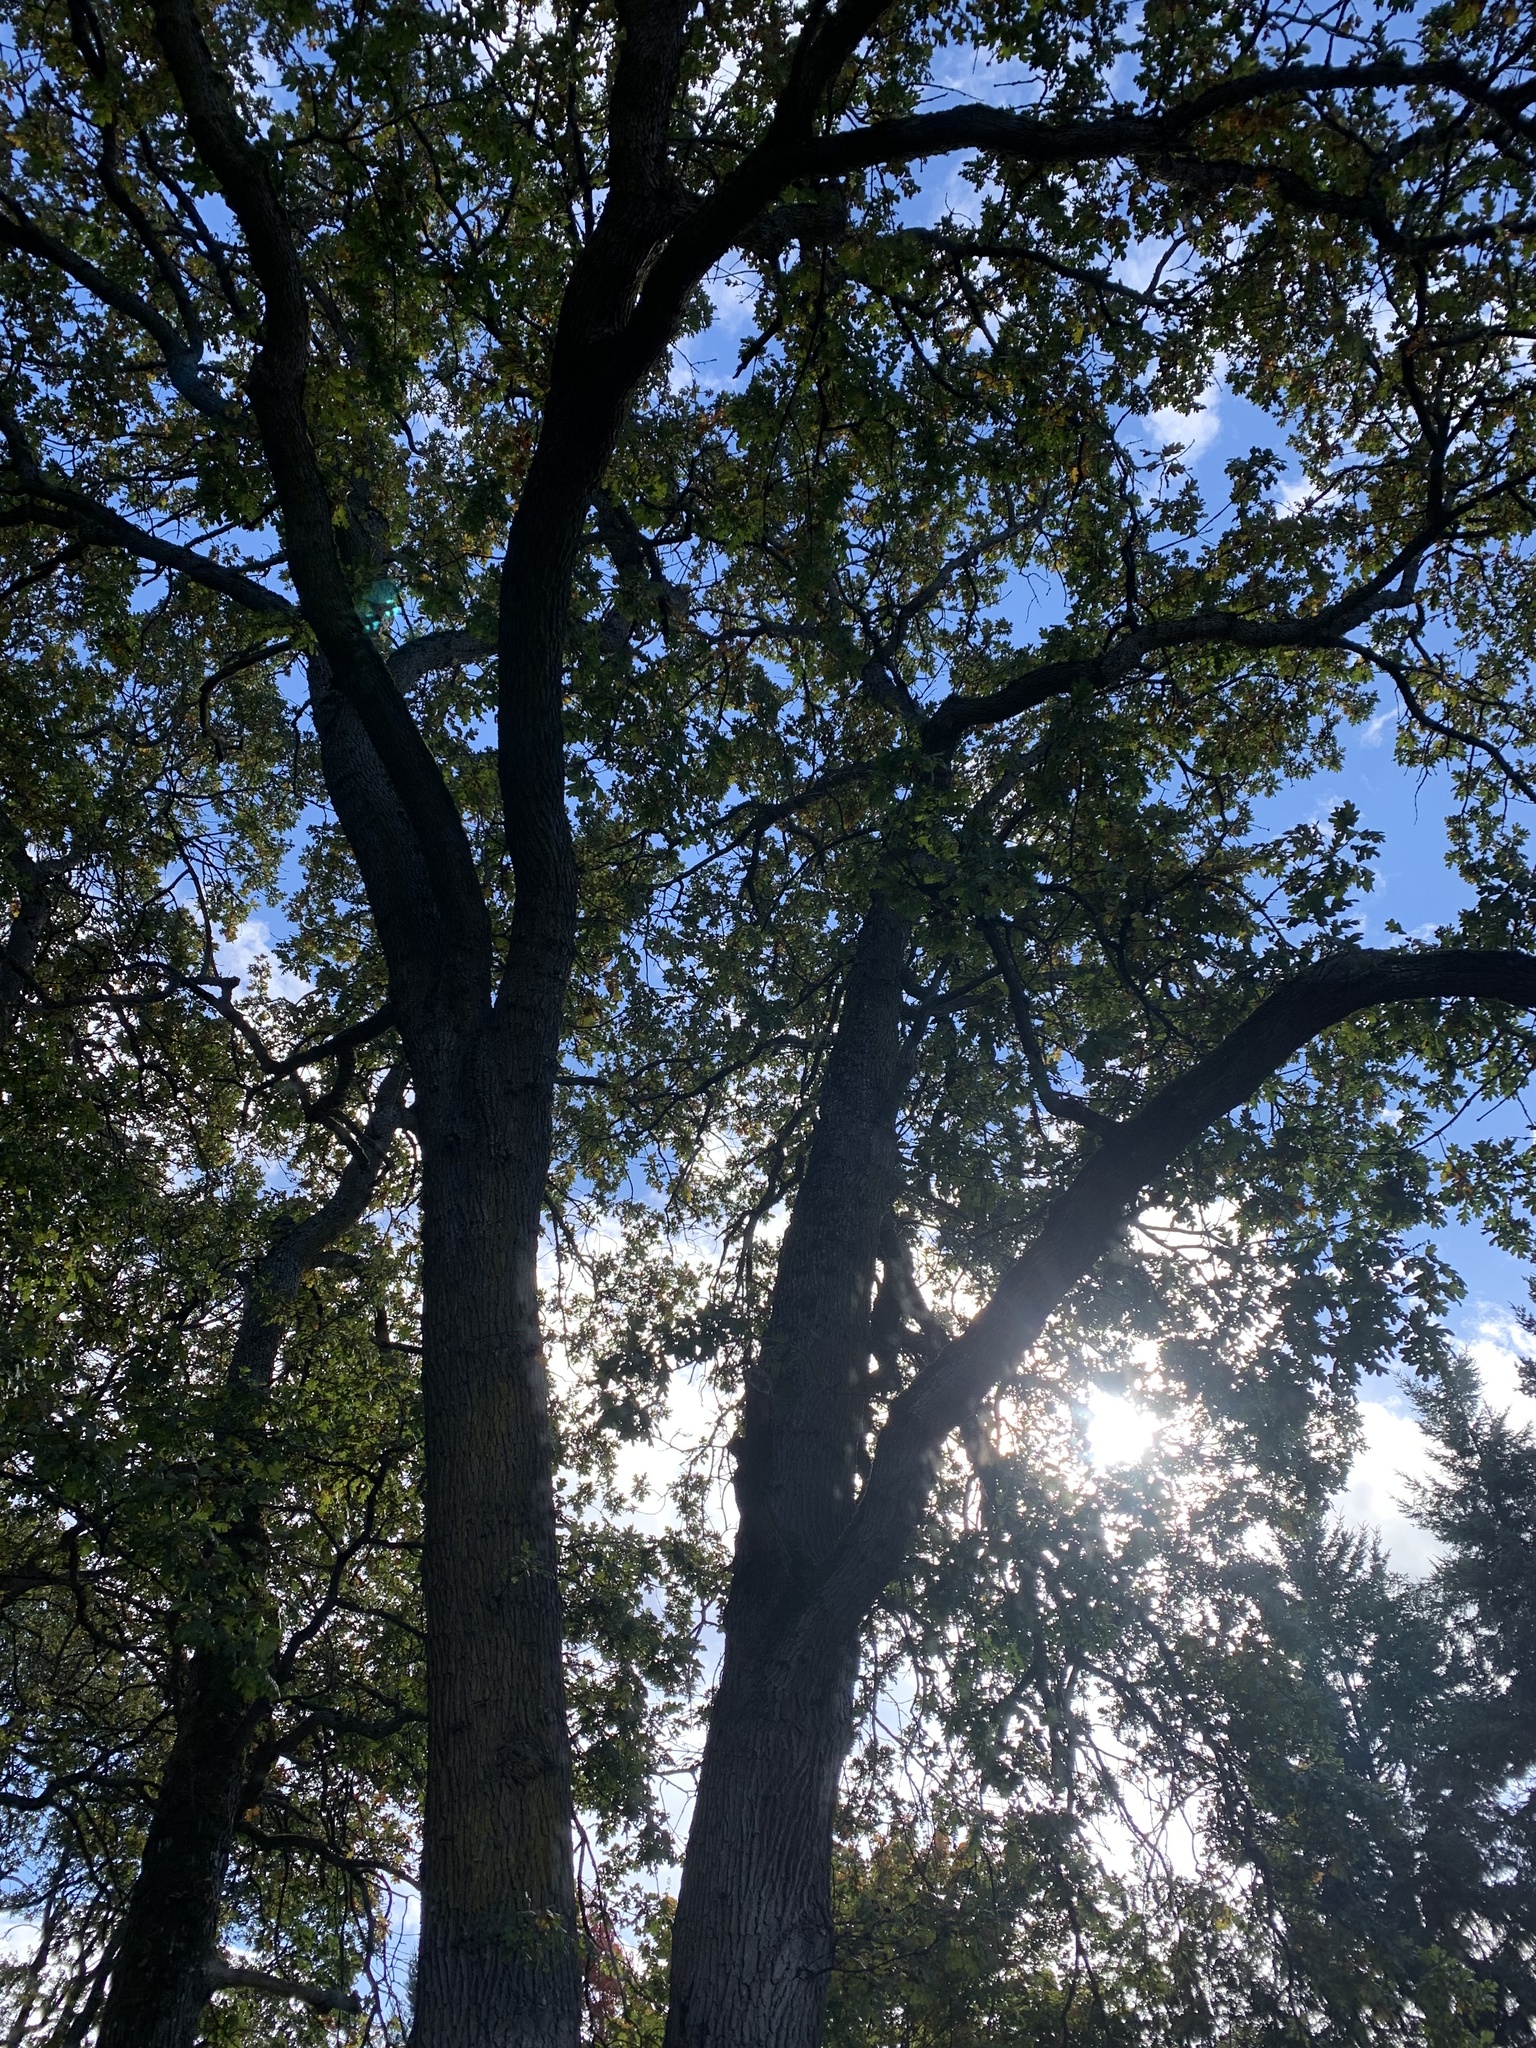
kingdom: Plantae
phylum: Tracheophyta
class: Magnoliopsida
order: Fagales
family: Fagaceae
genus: Quercus
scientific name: Quercus garryana
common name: Garry oak
